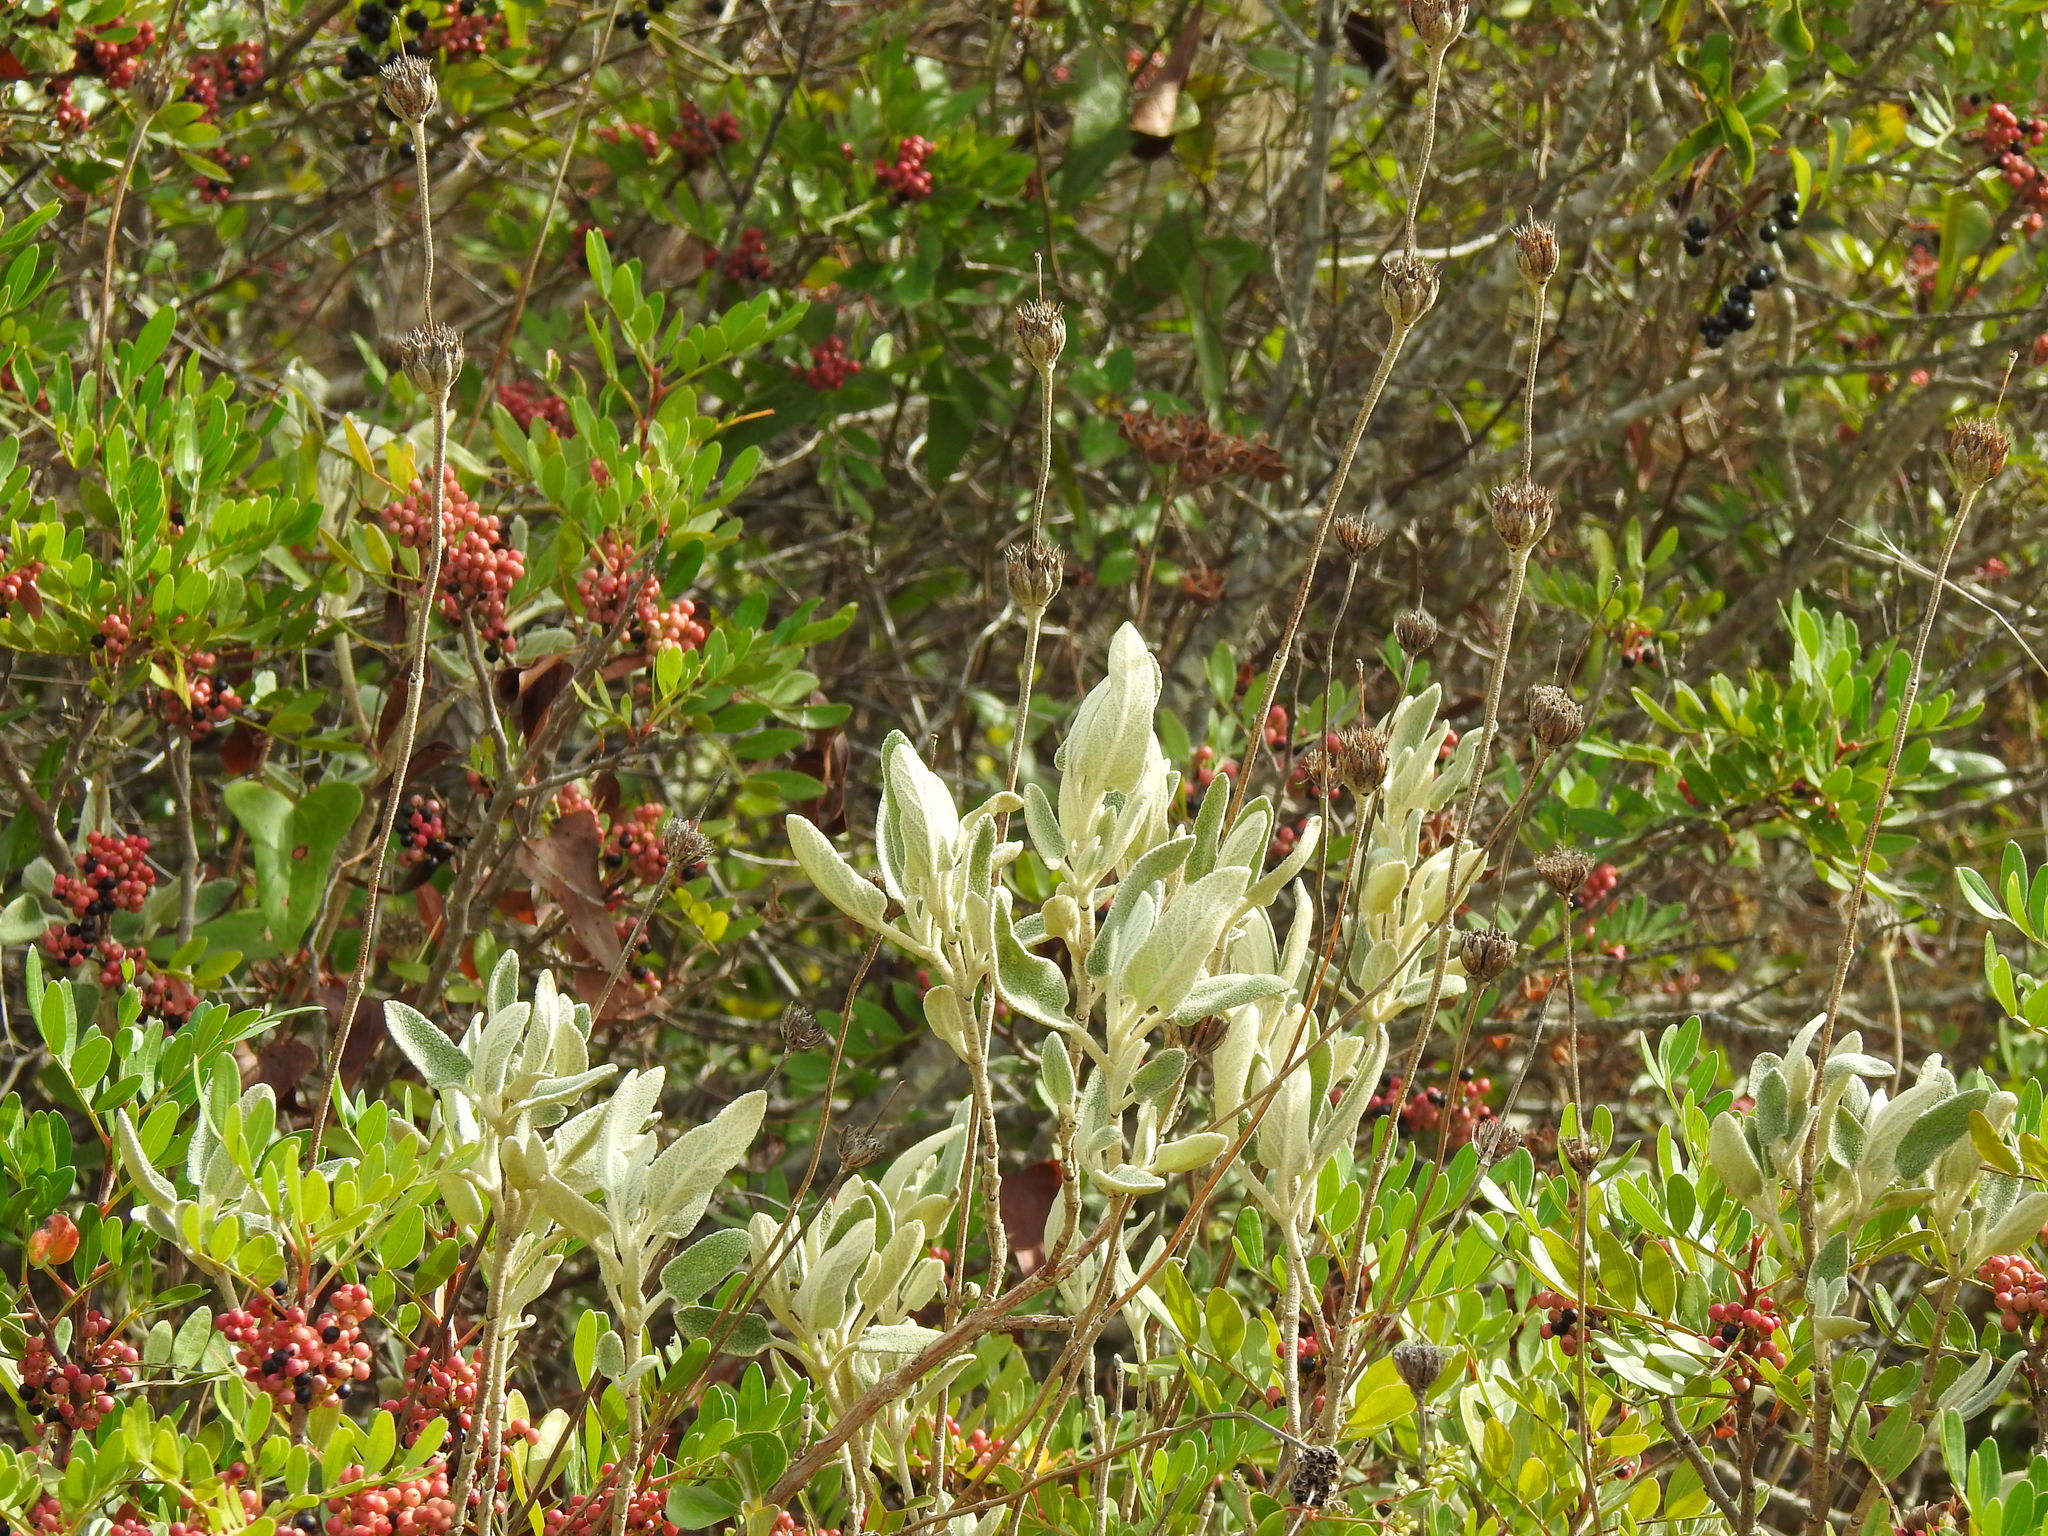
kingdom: Plantae
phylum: Tracheophyta
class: Magnoliopsida
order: Lamiales
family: Lamiaceae
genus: Phlomis
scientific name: Phlomis purpurea
